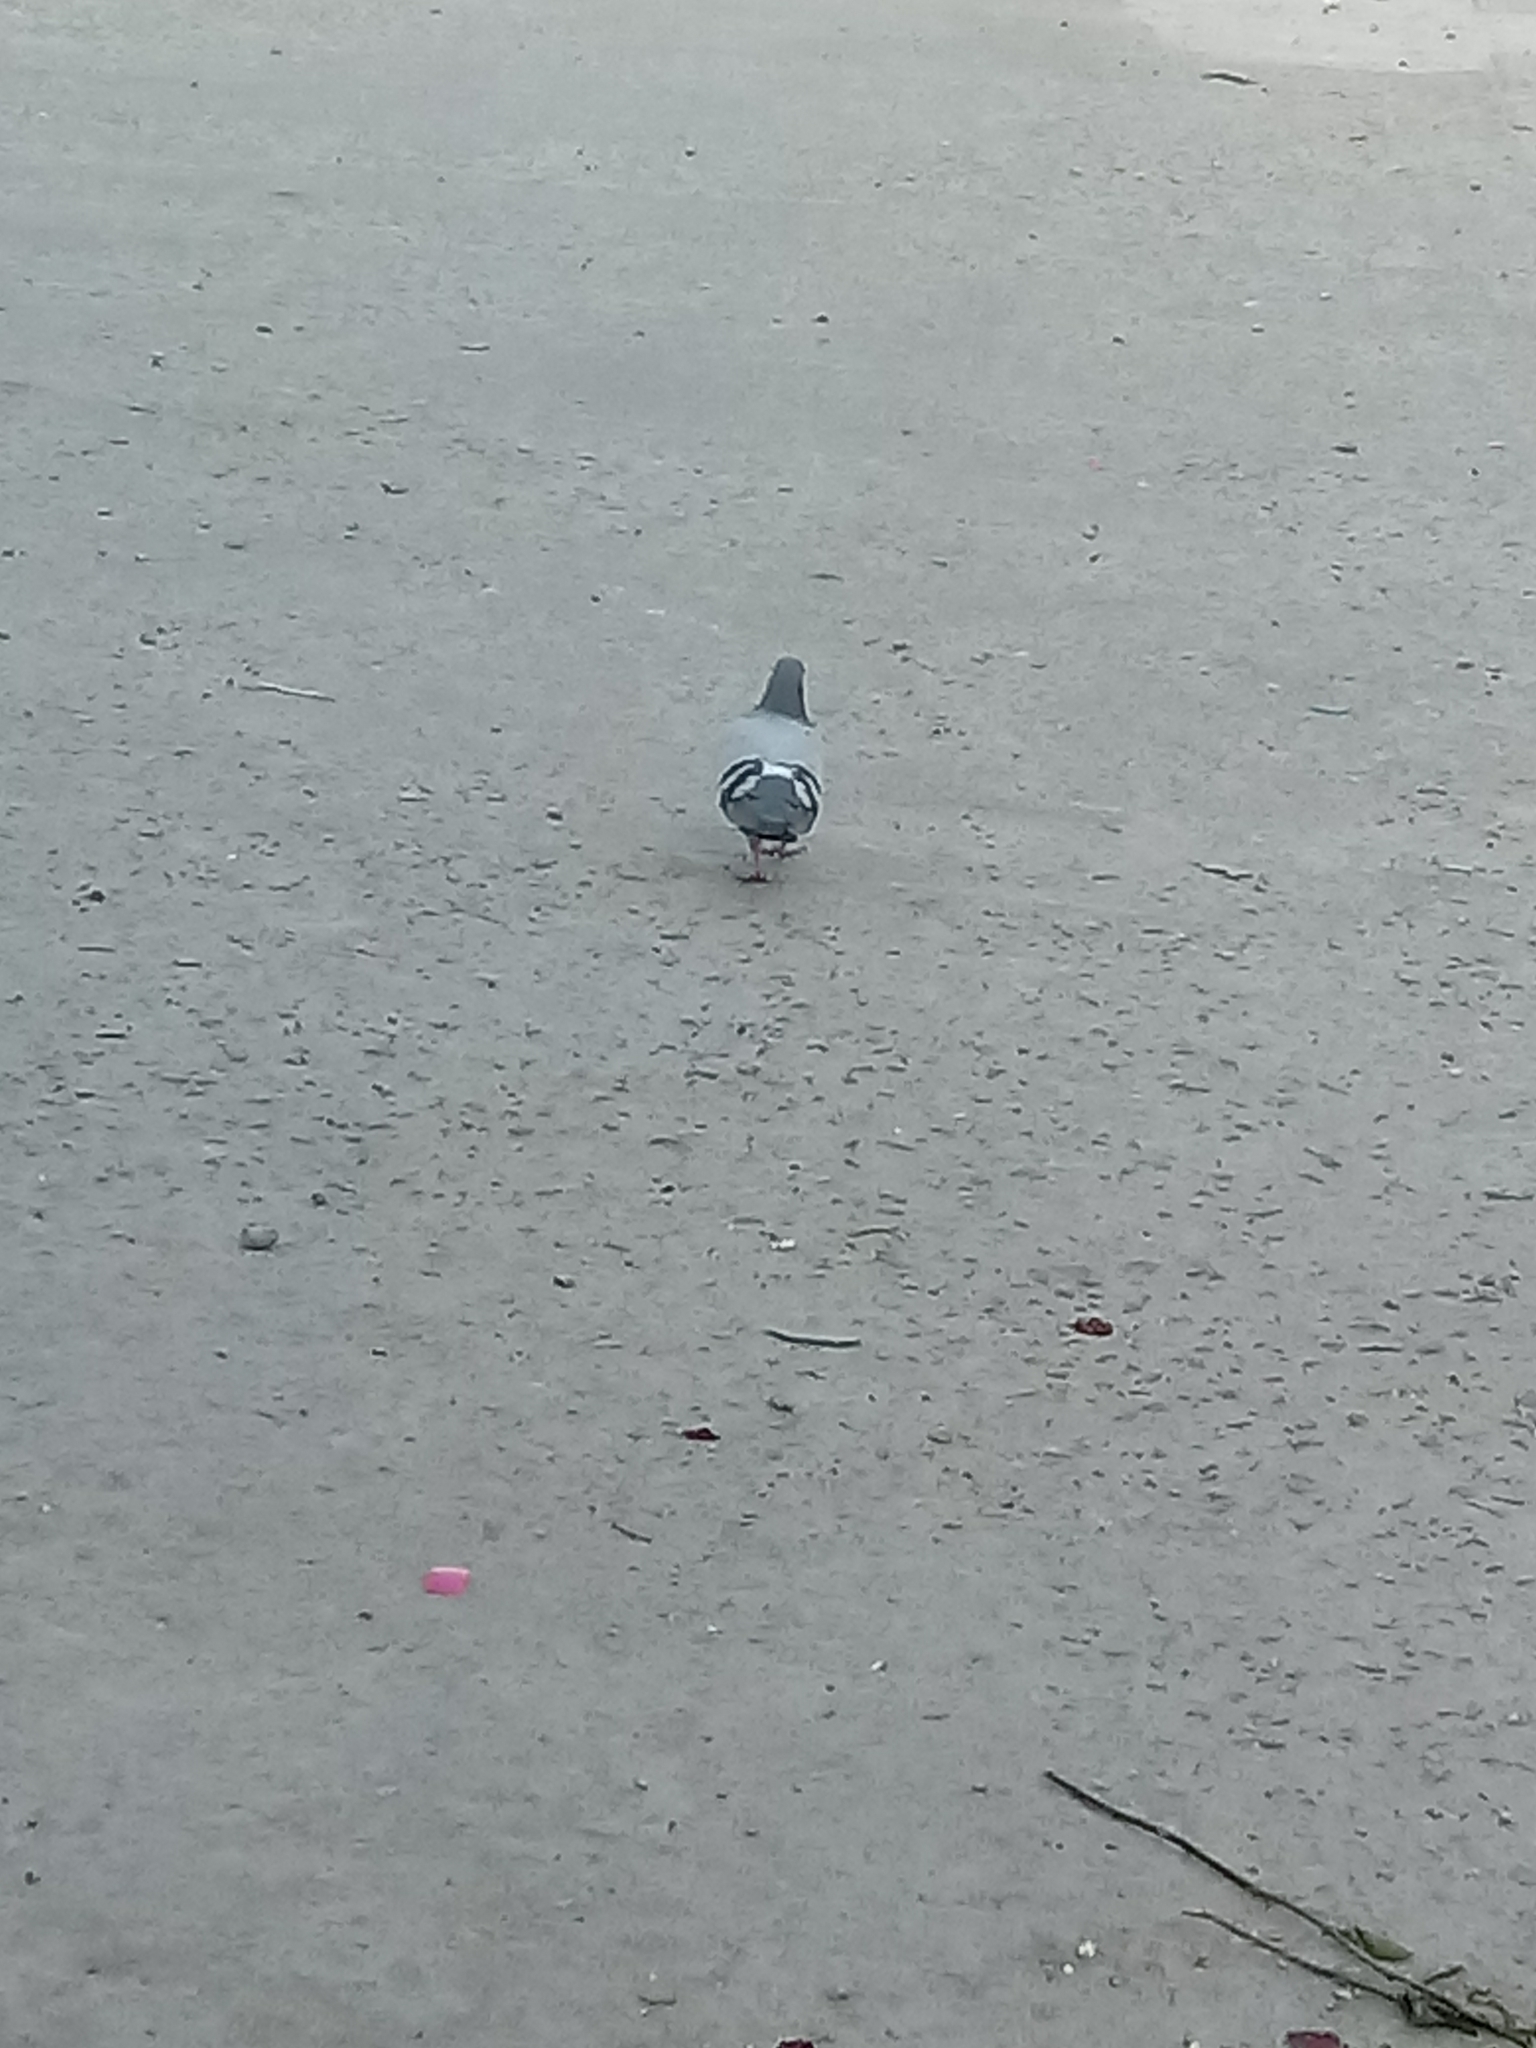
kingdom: Animalia
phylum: Chordata
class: Aves
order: Columbiformes
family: Columbidae
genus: Columba
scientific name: Columba livia
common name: Rock pigeon
